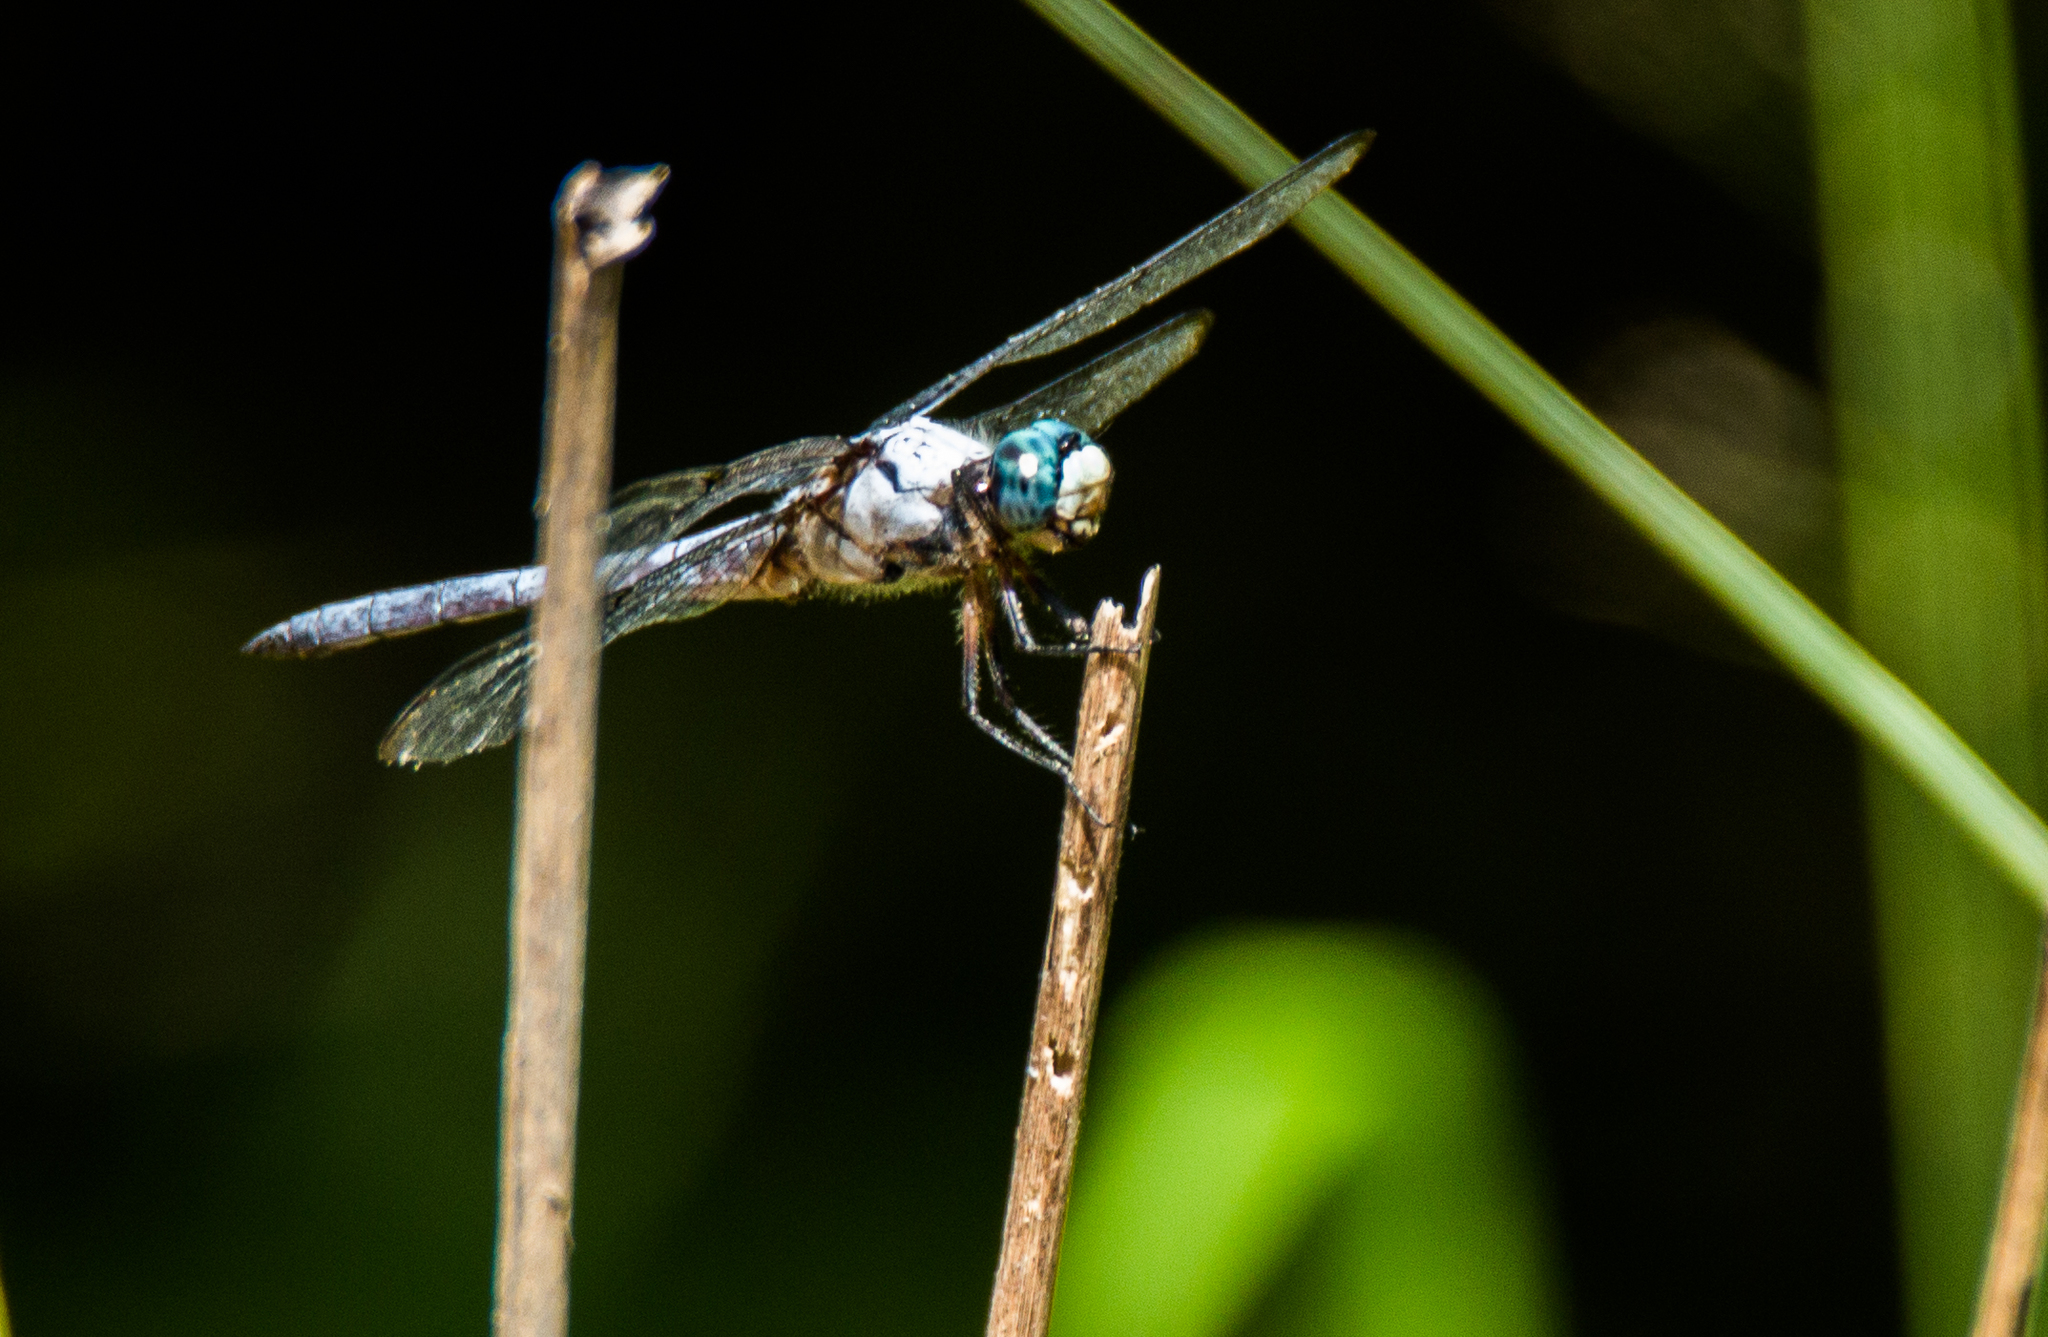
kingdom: Animalia
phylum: Arthropoda
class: Insecta
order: Odonata
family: Libellulidae
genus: Libellula
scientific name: Libellula vibrans
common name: Great blue skimmer
